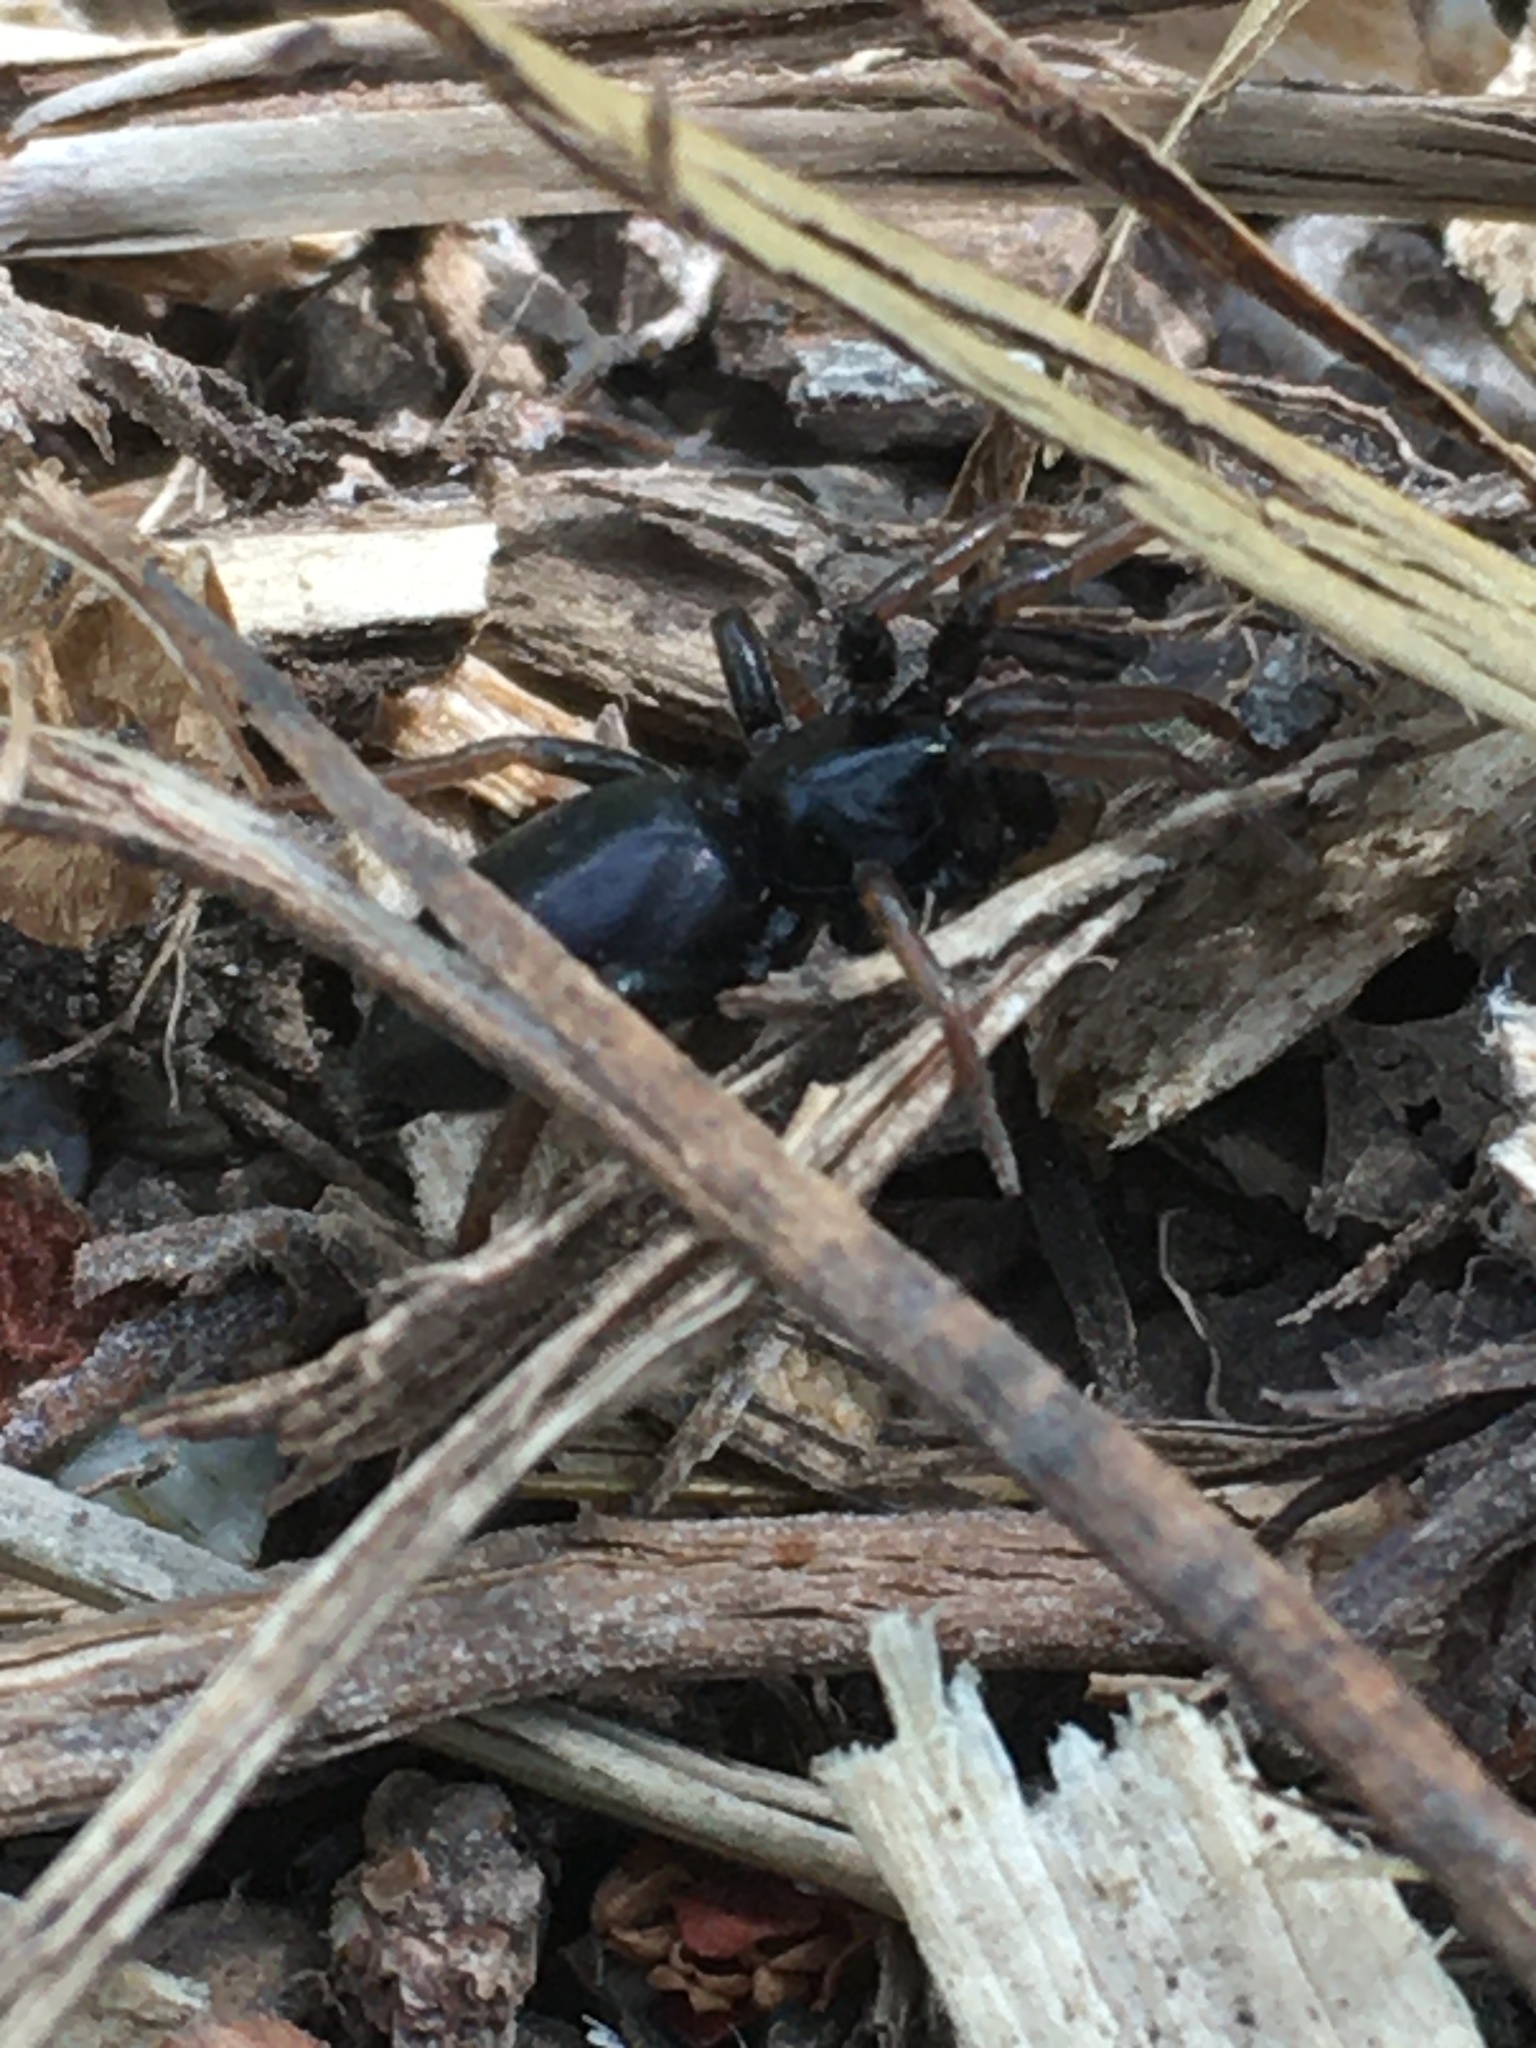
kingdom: Animalia
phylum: Arthropoda
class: Arachnida
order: Araneae
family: Gnaphosidae
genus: Trachyzelotes
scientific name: Trachyzelotes pedestris
